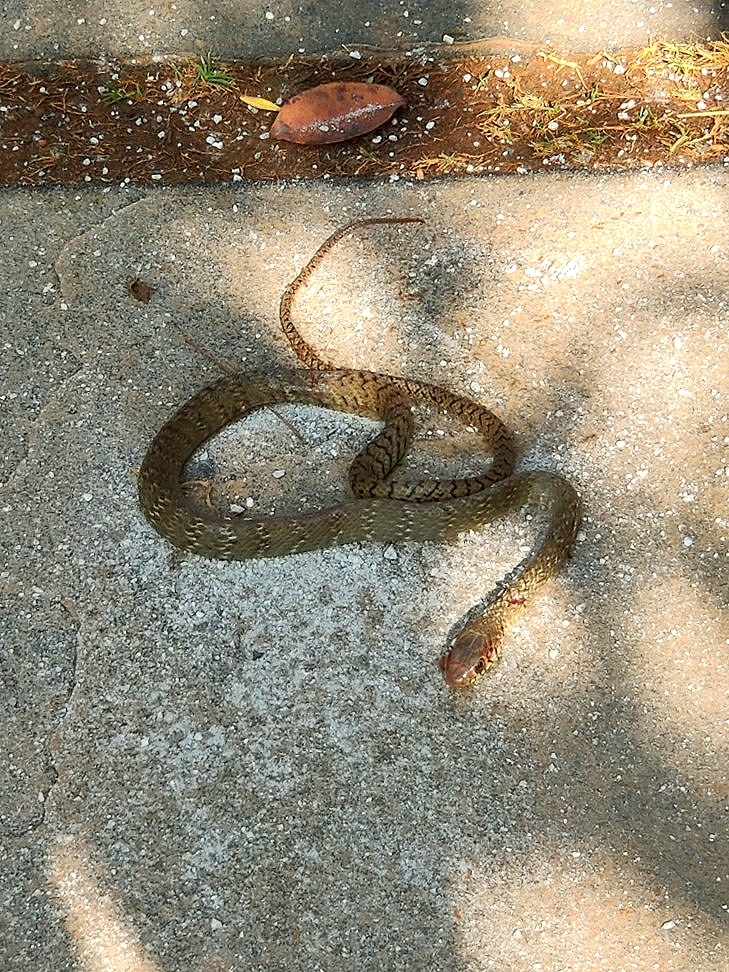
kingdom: Animalia
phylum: Chordata
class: Squamata
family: Colubridae
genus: Ptyas
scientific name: Ptyas mucosa
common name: Oriental ratsnake
